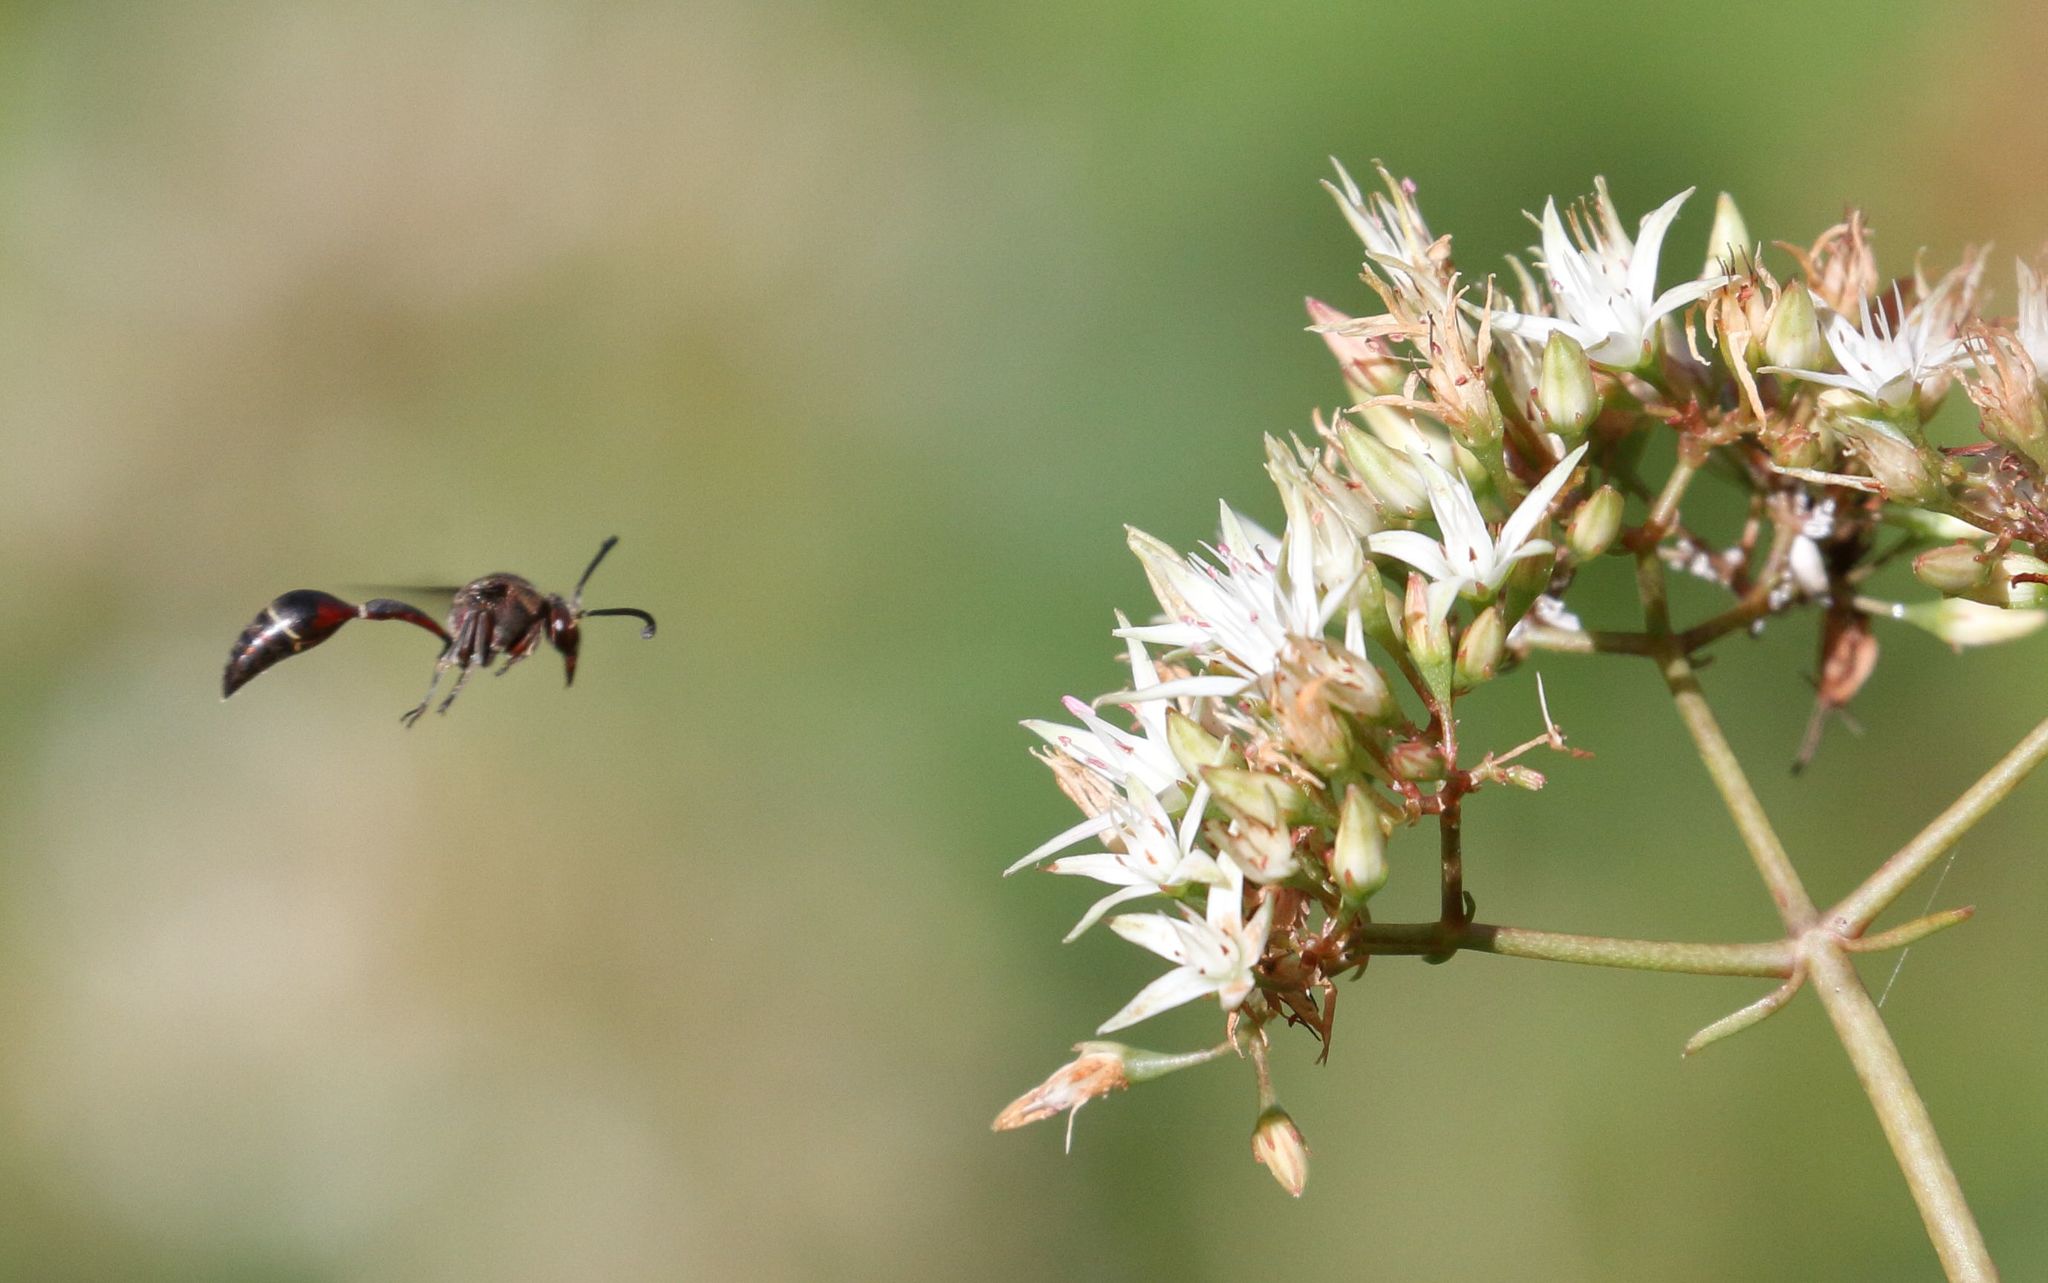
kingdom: Animalia
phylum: Arthropoda
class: Insecta
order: Hymenoptera
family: Eumenidae
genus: Afreumenes
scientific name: Afreumenes
